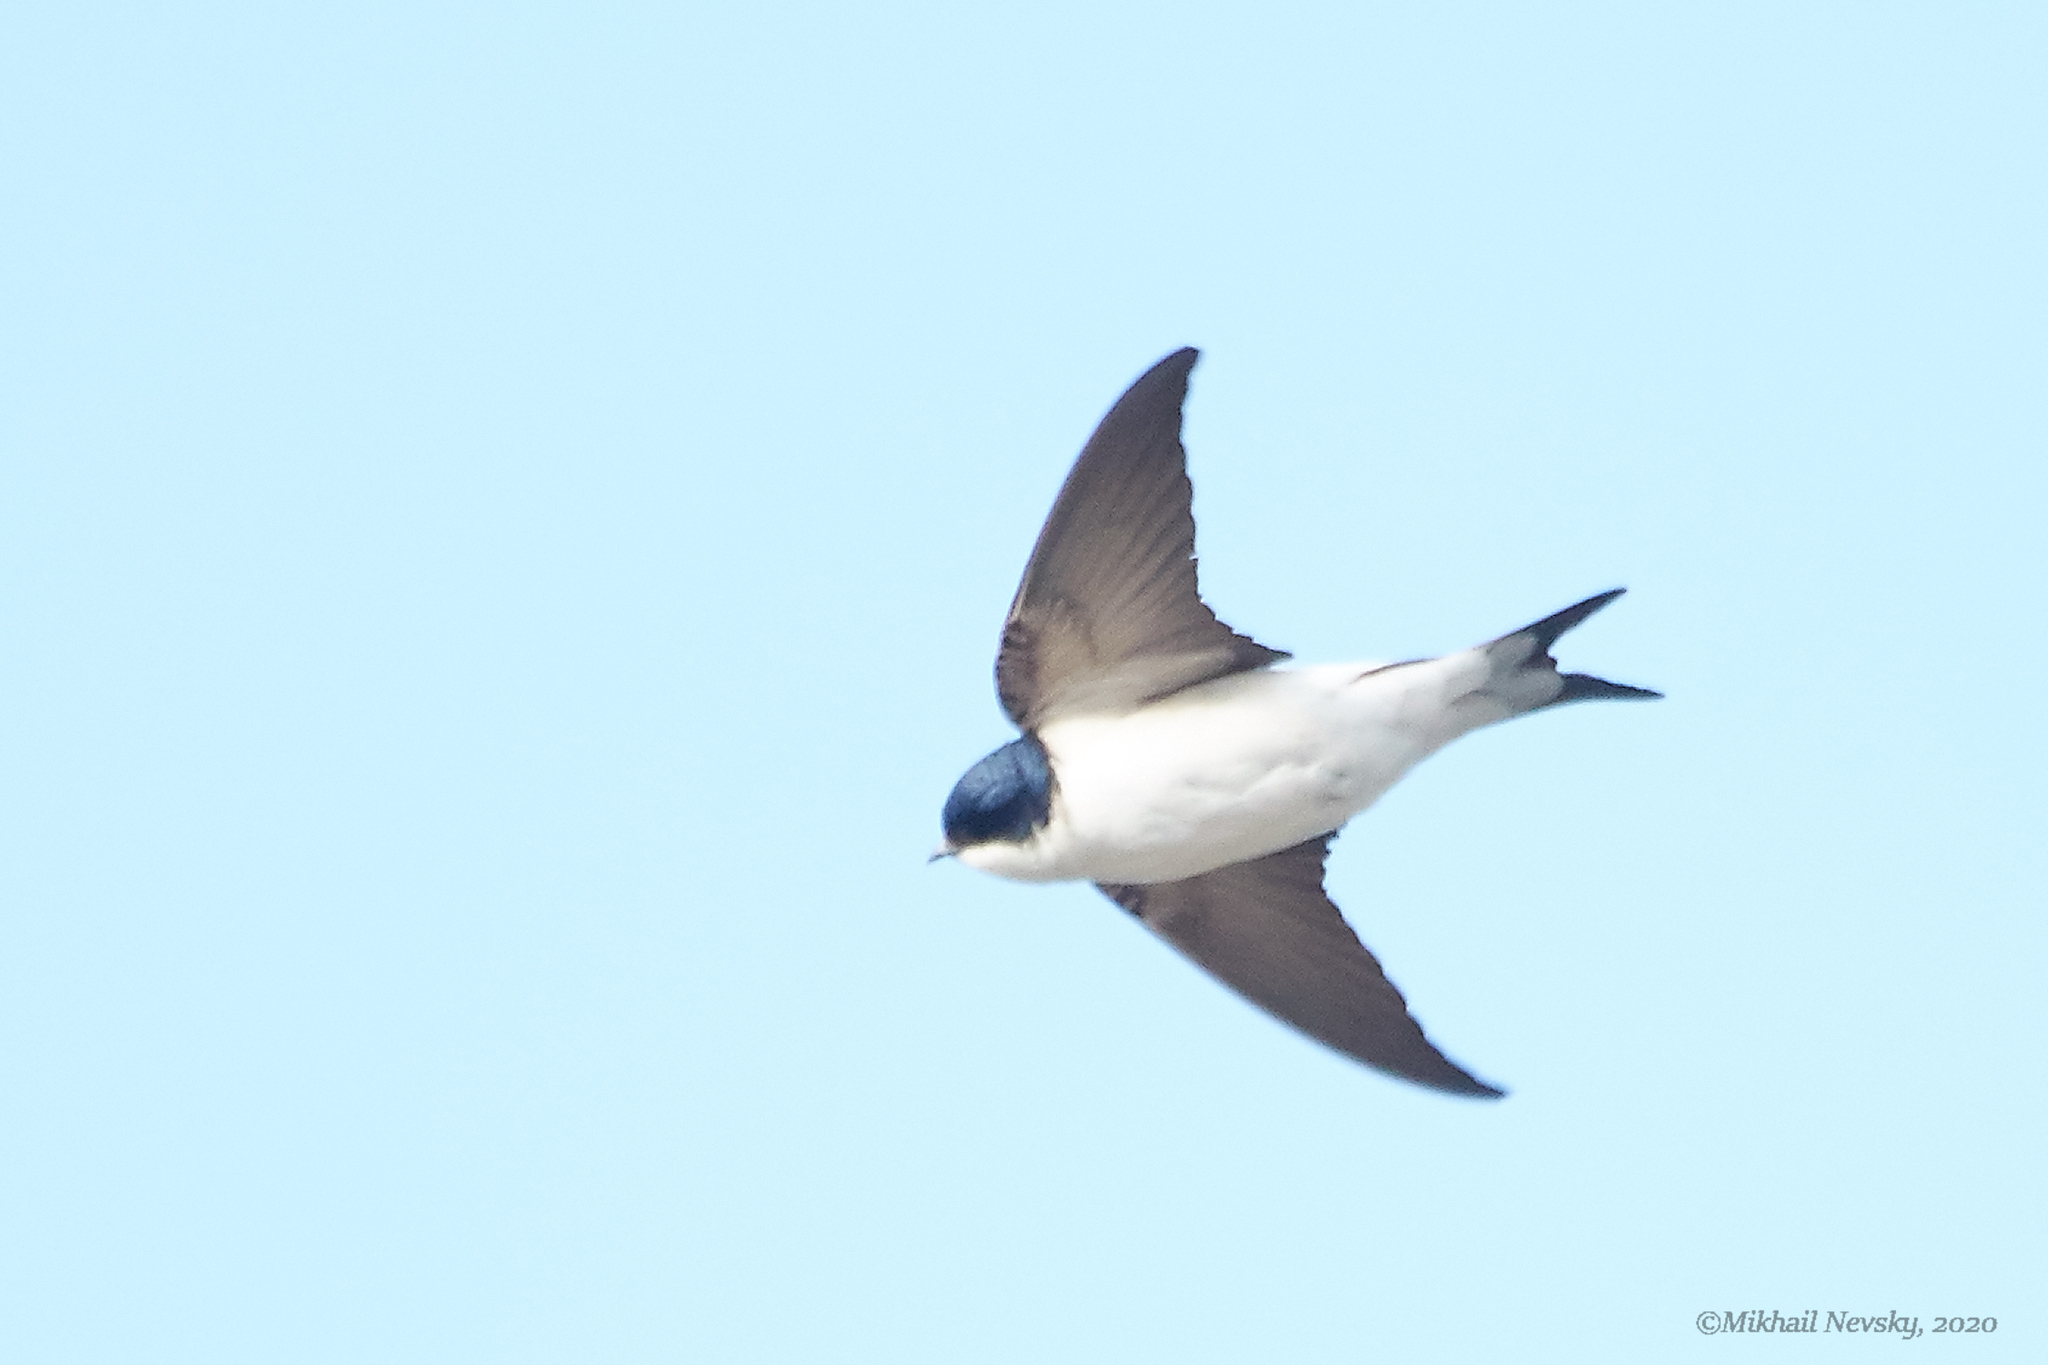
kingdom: Animalia
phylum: Chordata
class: Aves
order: Passeriformes
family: Hirundinidae
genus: Delichon
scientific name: Delichon urbicum
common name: Common house martin
